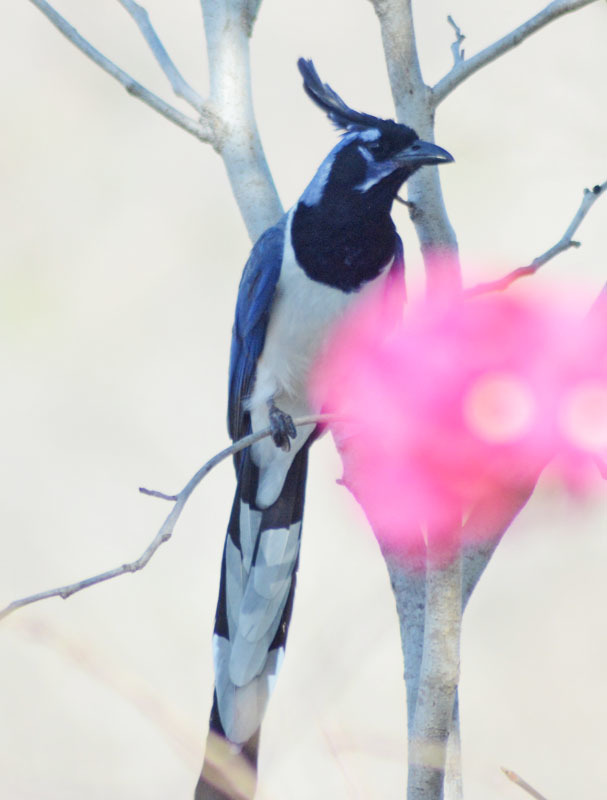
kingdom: Animalia
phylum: Chordata
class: Aves
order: Passeriformes
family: Corvidae
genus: Calocitta
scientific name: Calocitta colliei
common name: Black-throated magpie-jay
